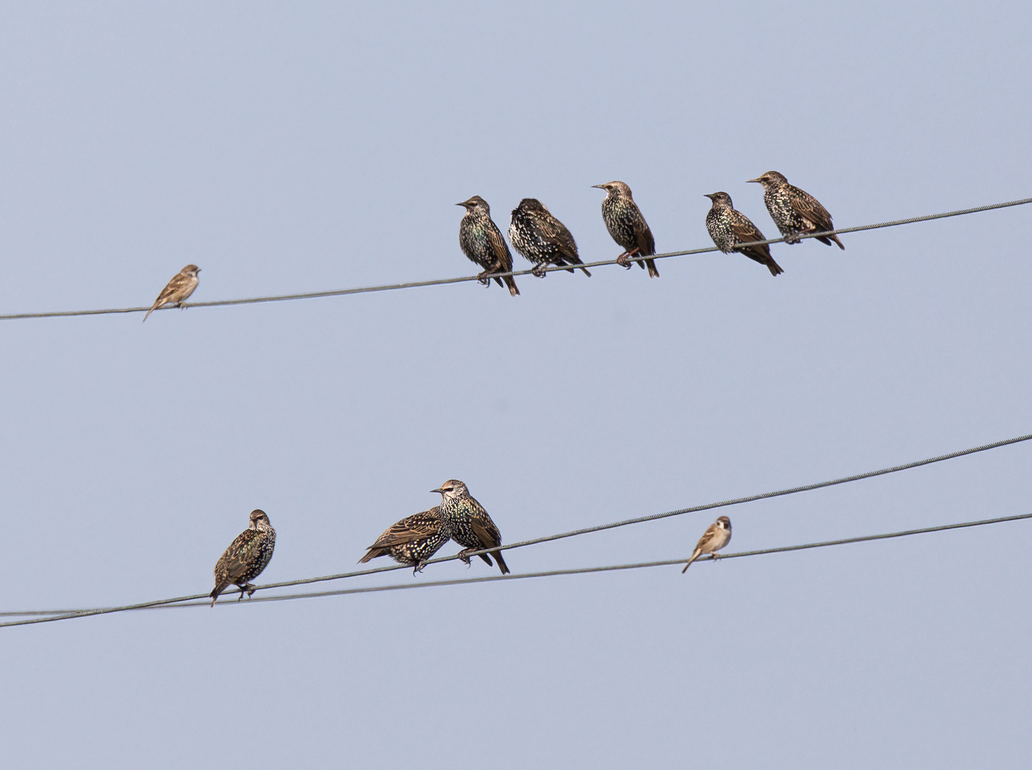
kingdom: Animalia
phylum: Chordata
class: Aves
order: Passeriformes
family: Sturnidae
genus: Sturnus
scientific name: Sturnus vulgaris
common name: Common starling
